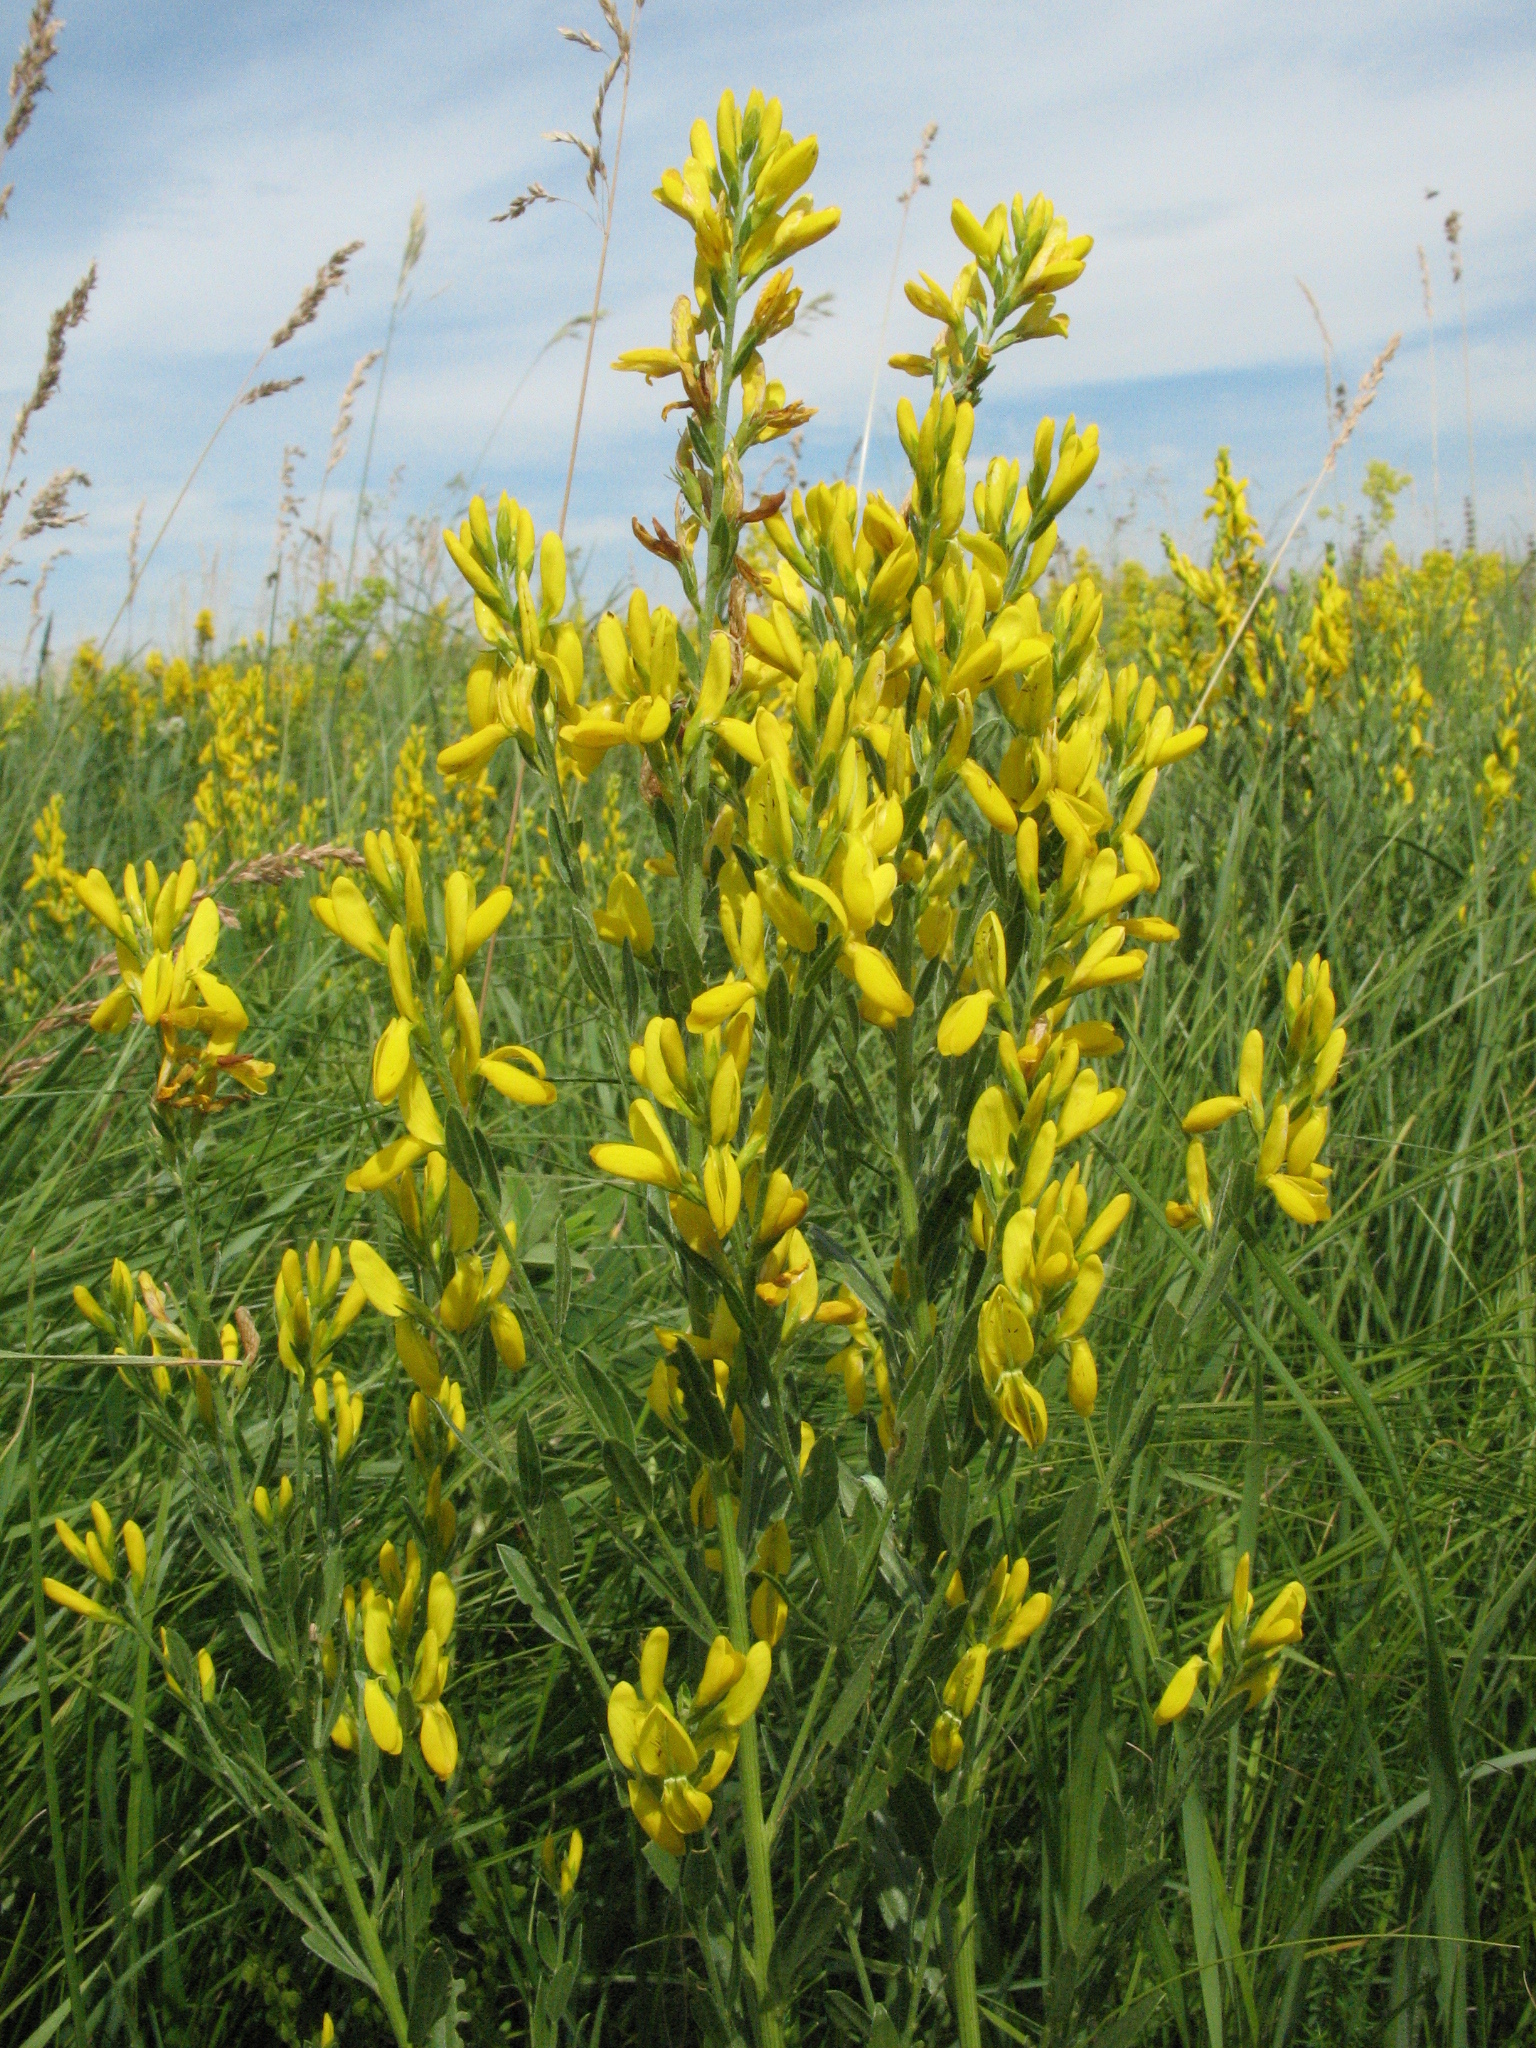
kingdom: Plantae
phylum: Tracheophyta
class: Magnoliopsida
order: Fabales
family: Fabaceae
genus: Genista
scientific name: Genista tinctoria
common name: Dyer's greenweed
